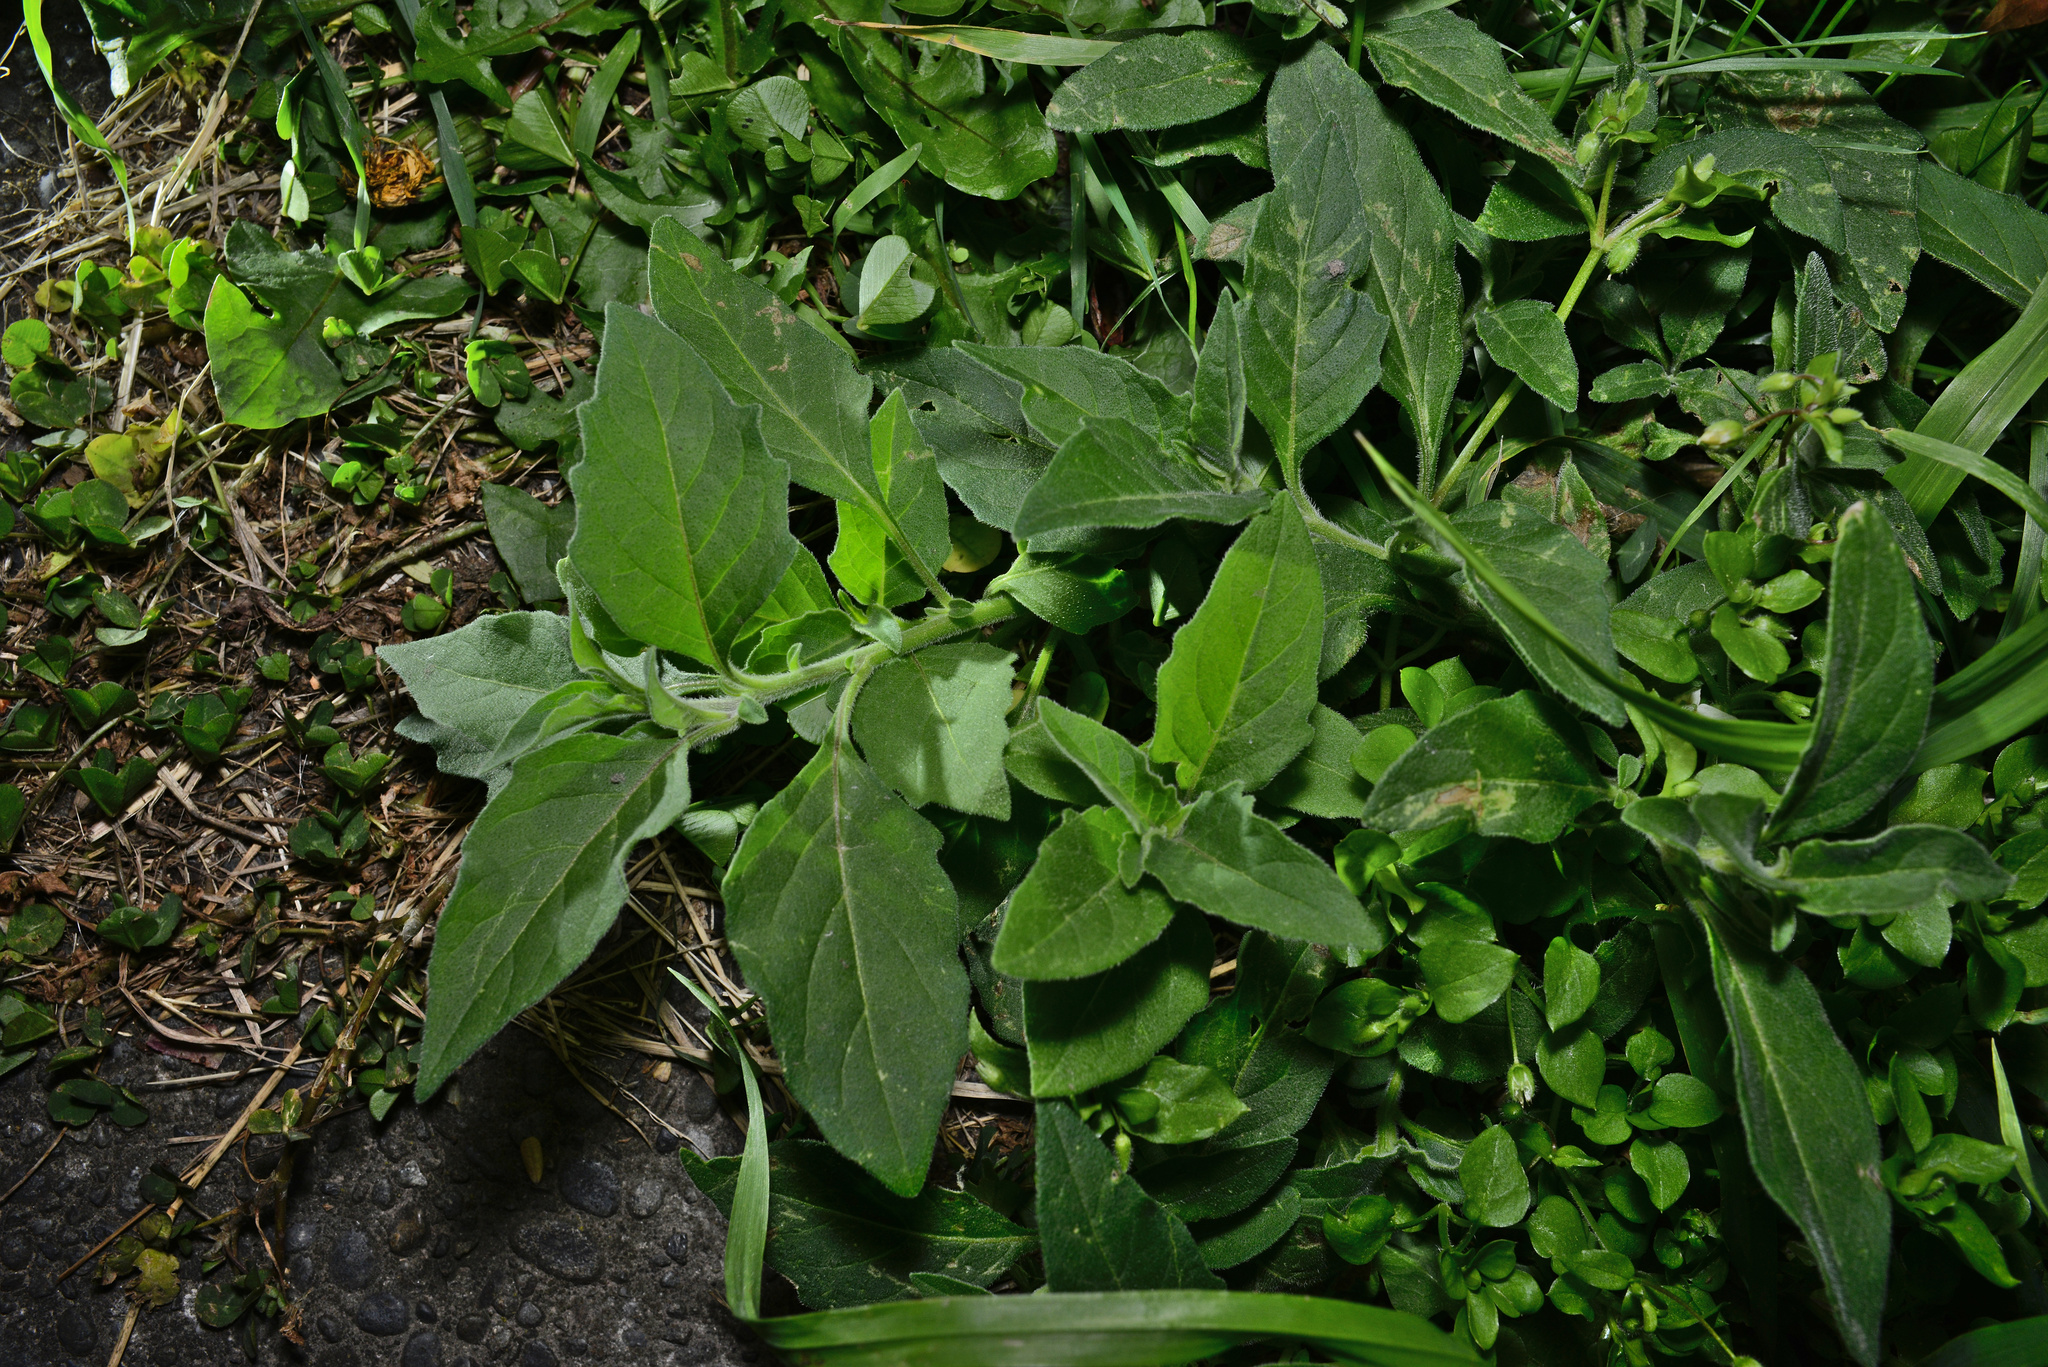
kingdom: Plantae
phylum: Tracheophyta
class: Magnoliopsida
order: Solanales
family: Solanaceae
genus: Solanum
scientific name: Solanum chenopodioides
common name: Tall nightshade
